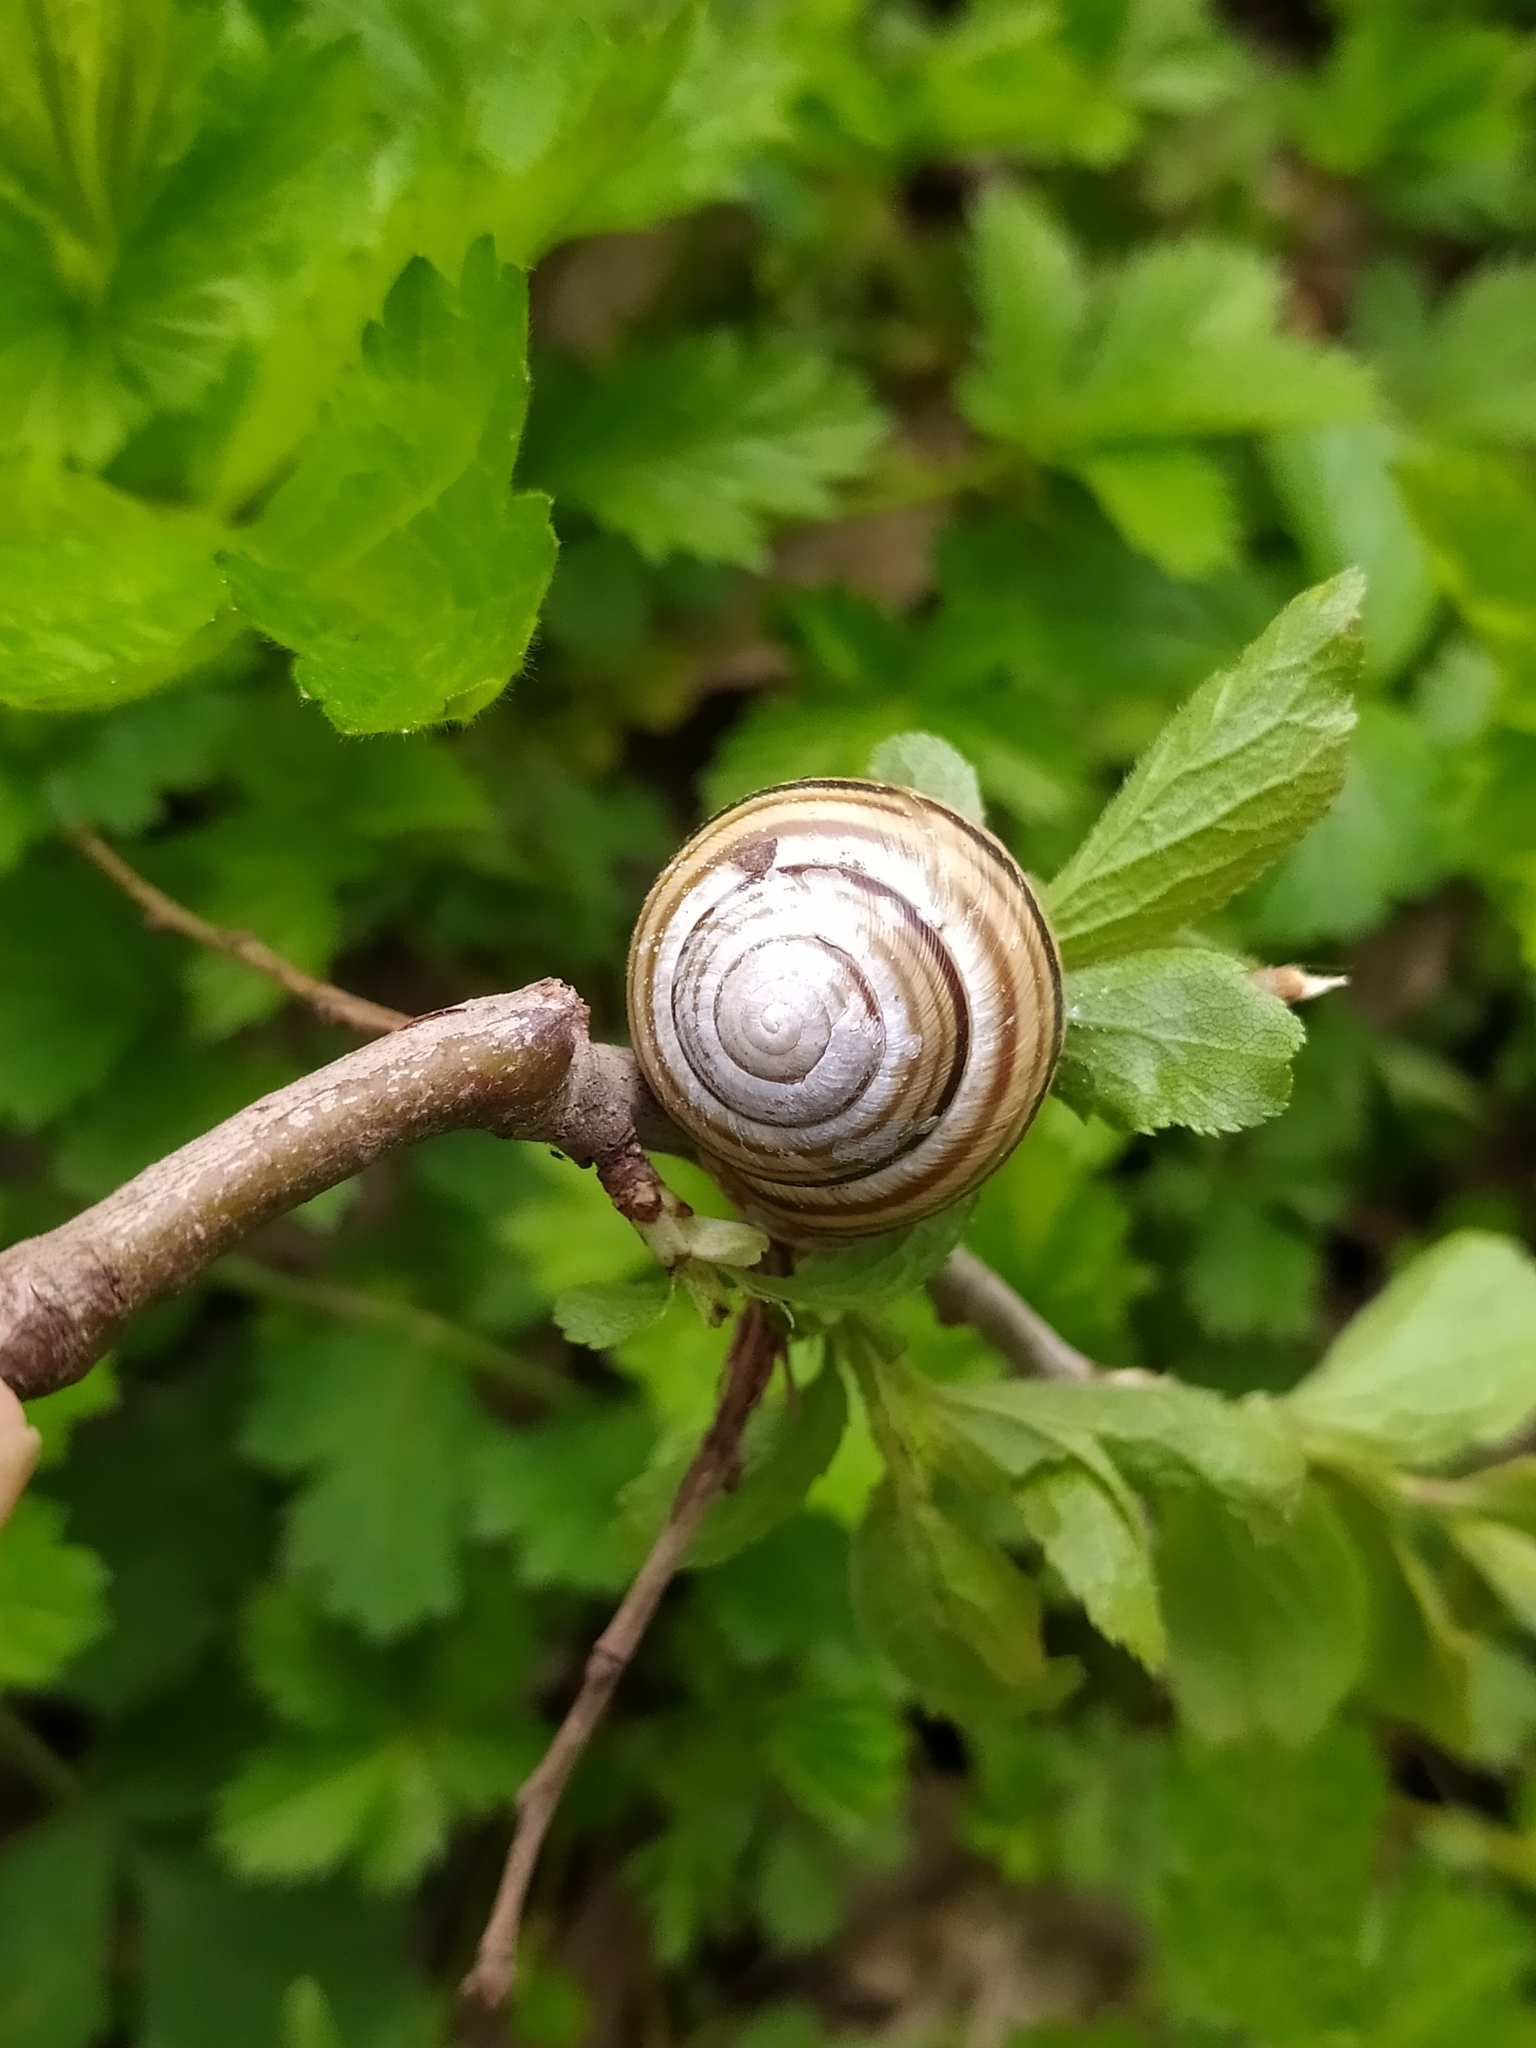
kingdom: Animalia
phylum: Mollusca
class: Gastropoda
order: Stylommatophora
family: Helicidae
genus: Caucasotachea
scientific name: Caucasotachea vindobonensis
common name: European helicid land snail
